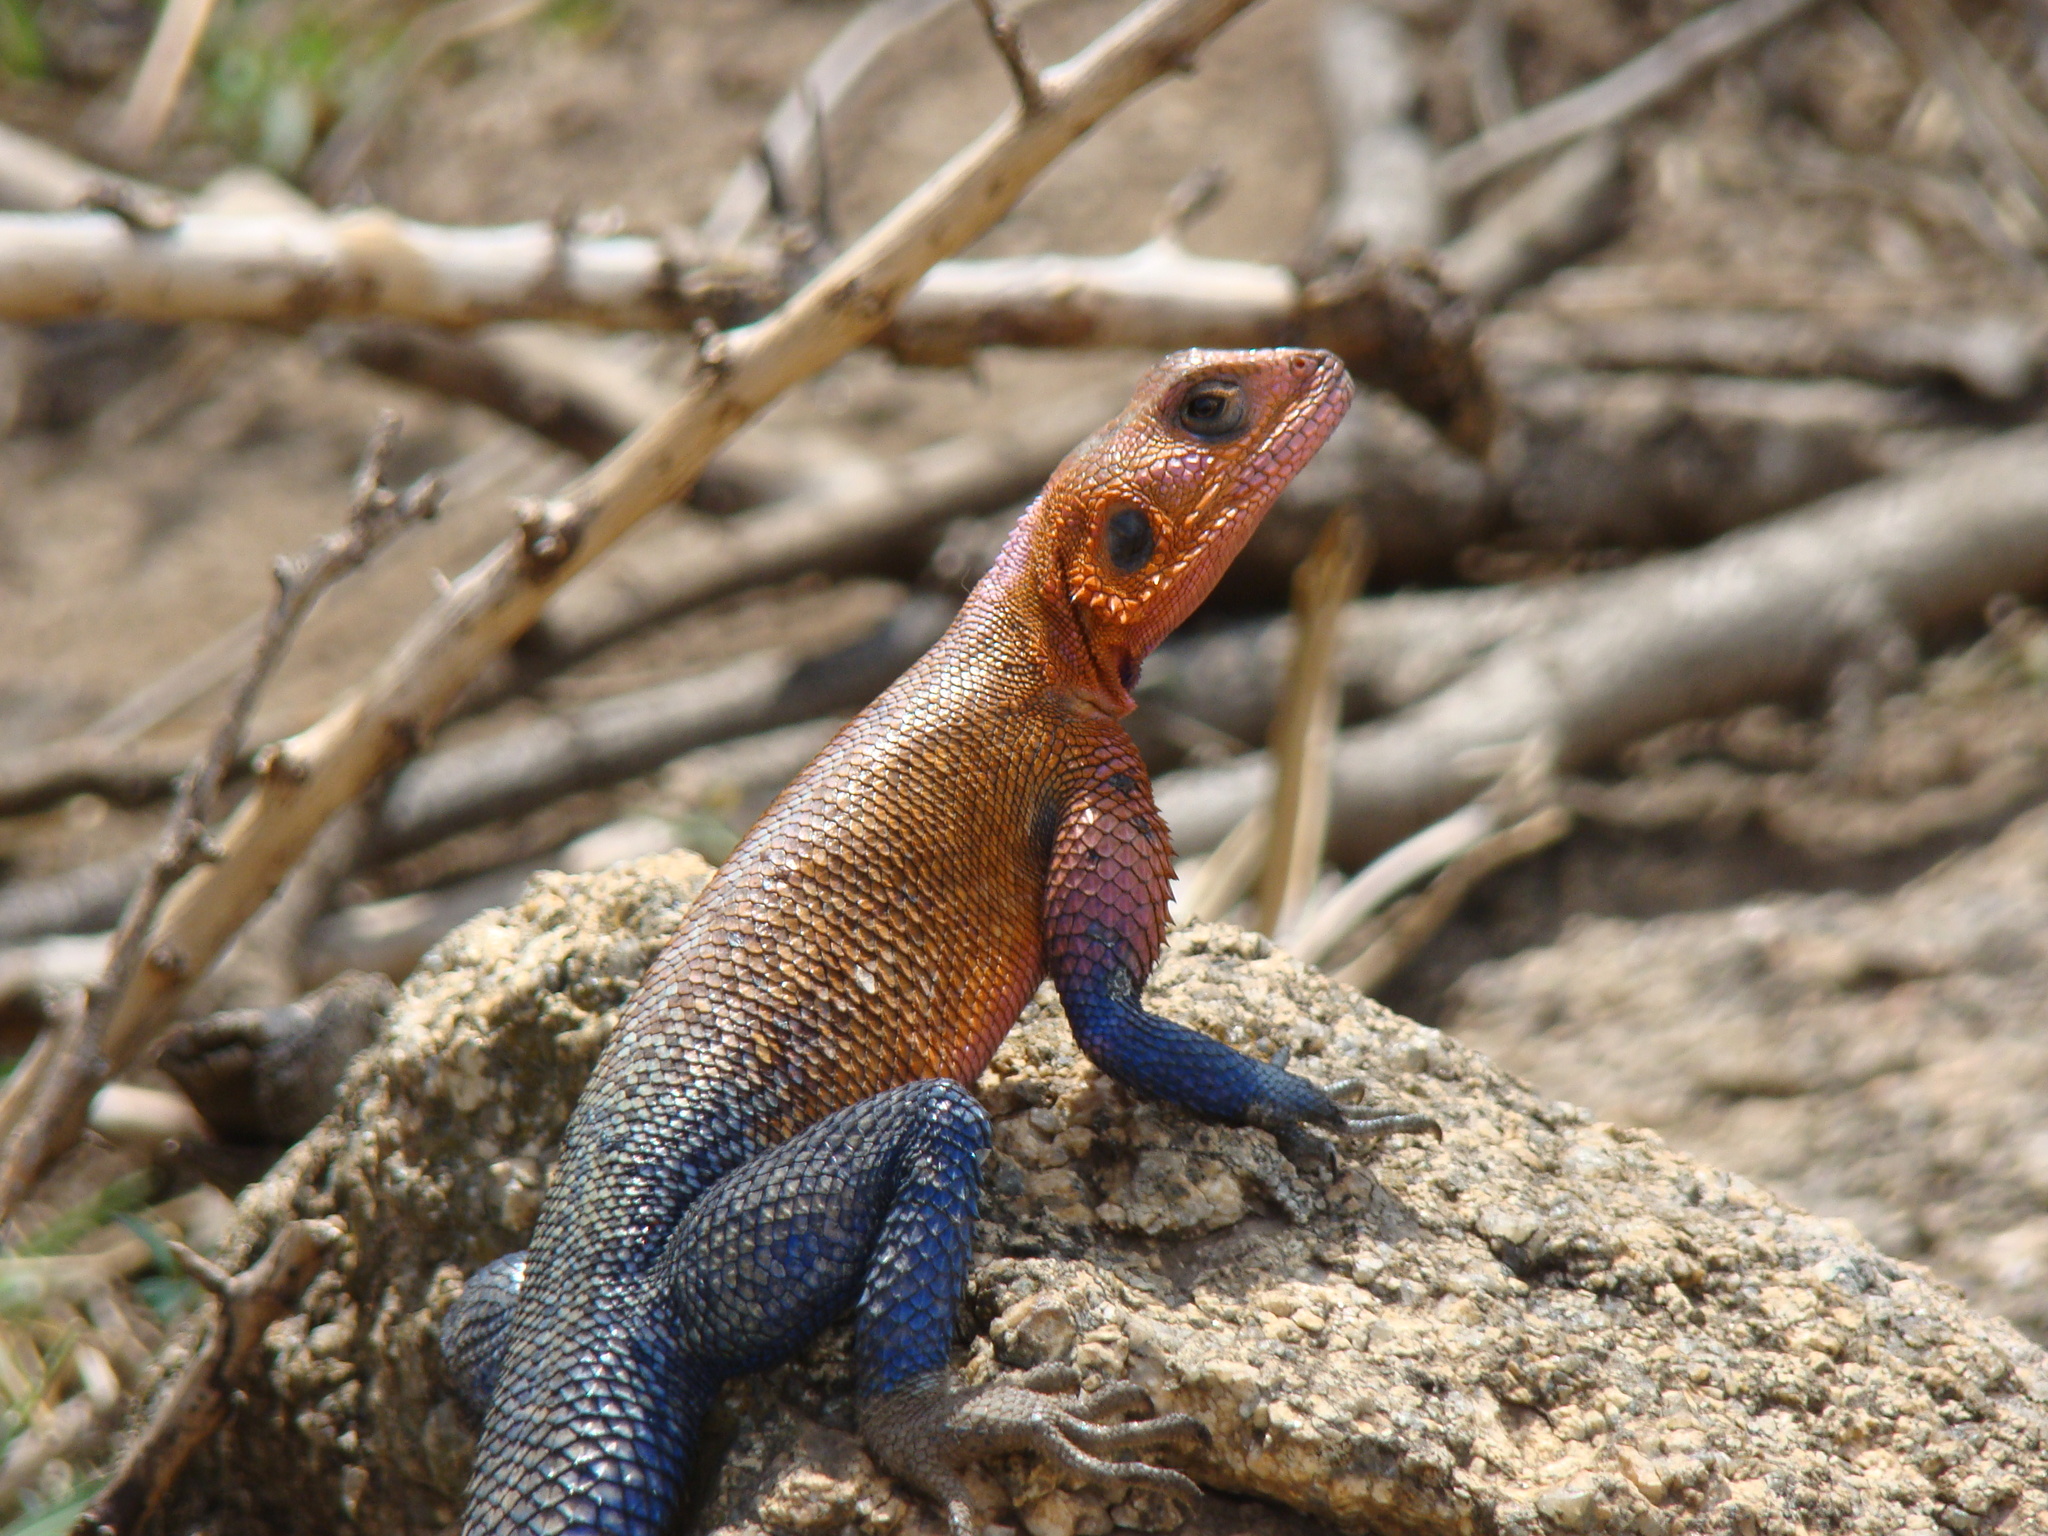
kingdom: Animalia
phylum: Chordata
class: Squamata
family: Agamidae
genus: Agama
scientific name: Agama mwanzae
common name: Mwanza flat-headed agama
